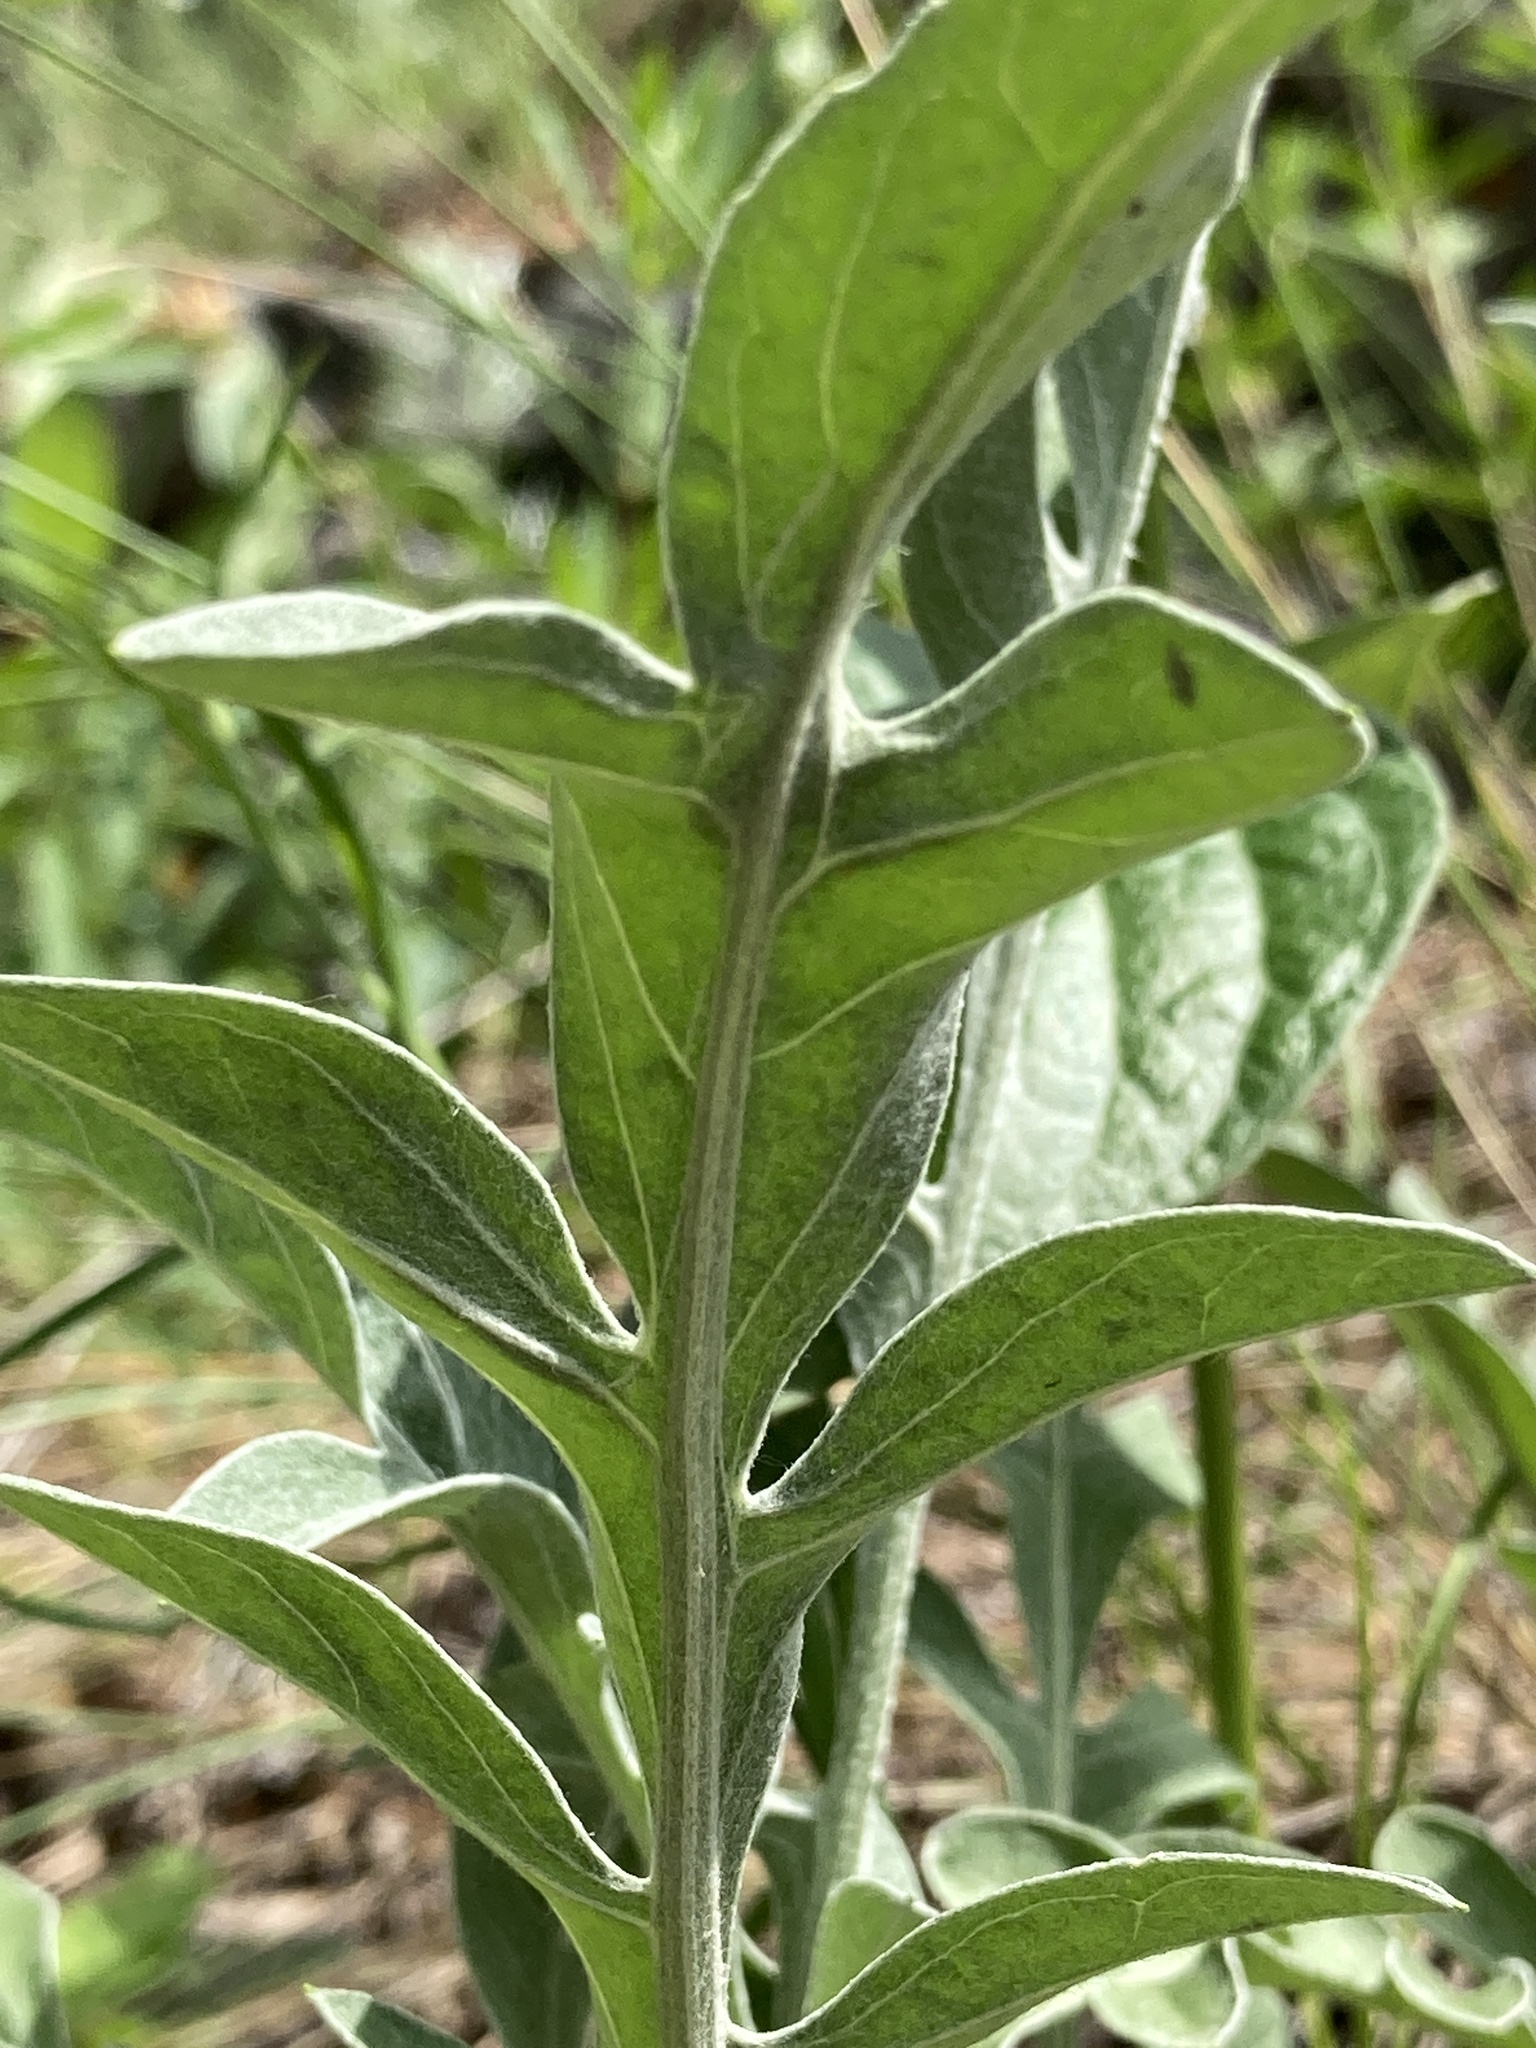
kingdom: Plantae
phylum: Tracheophyta
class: Magnoliopsida
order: Asterales
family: Asteraceae
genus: Psephellus
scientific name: Psephellus sibiricus
